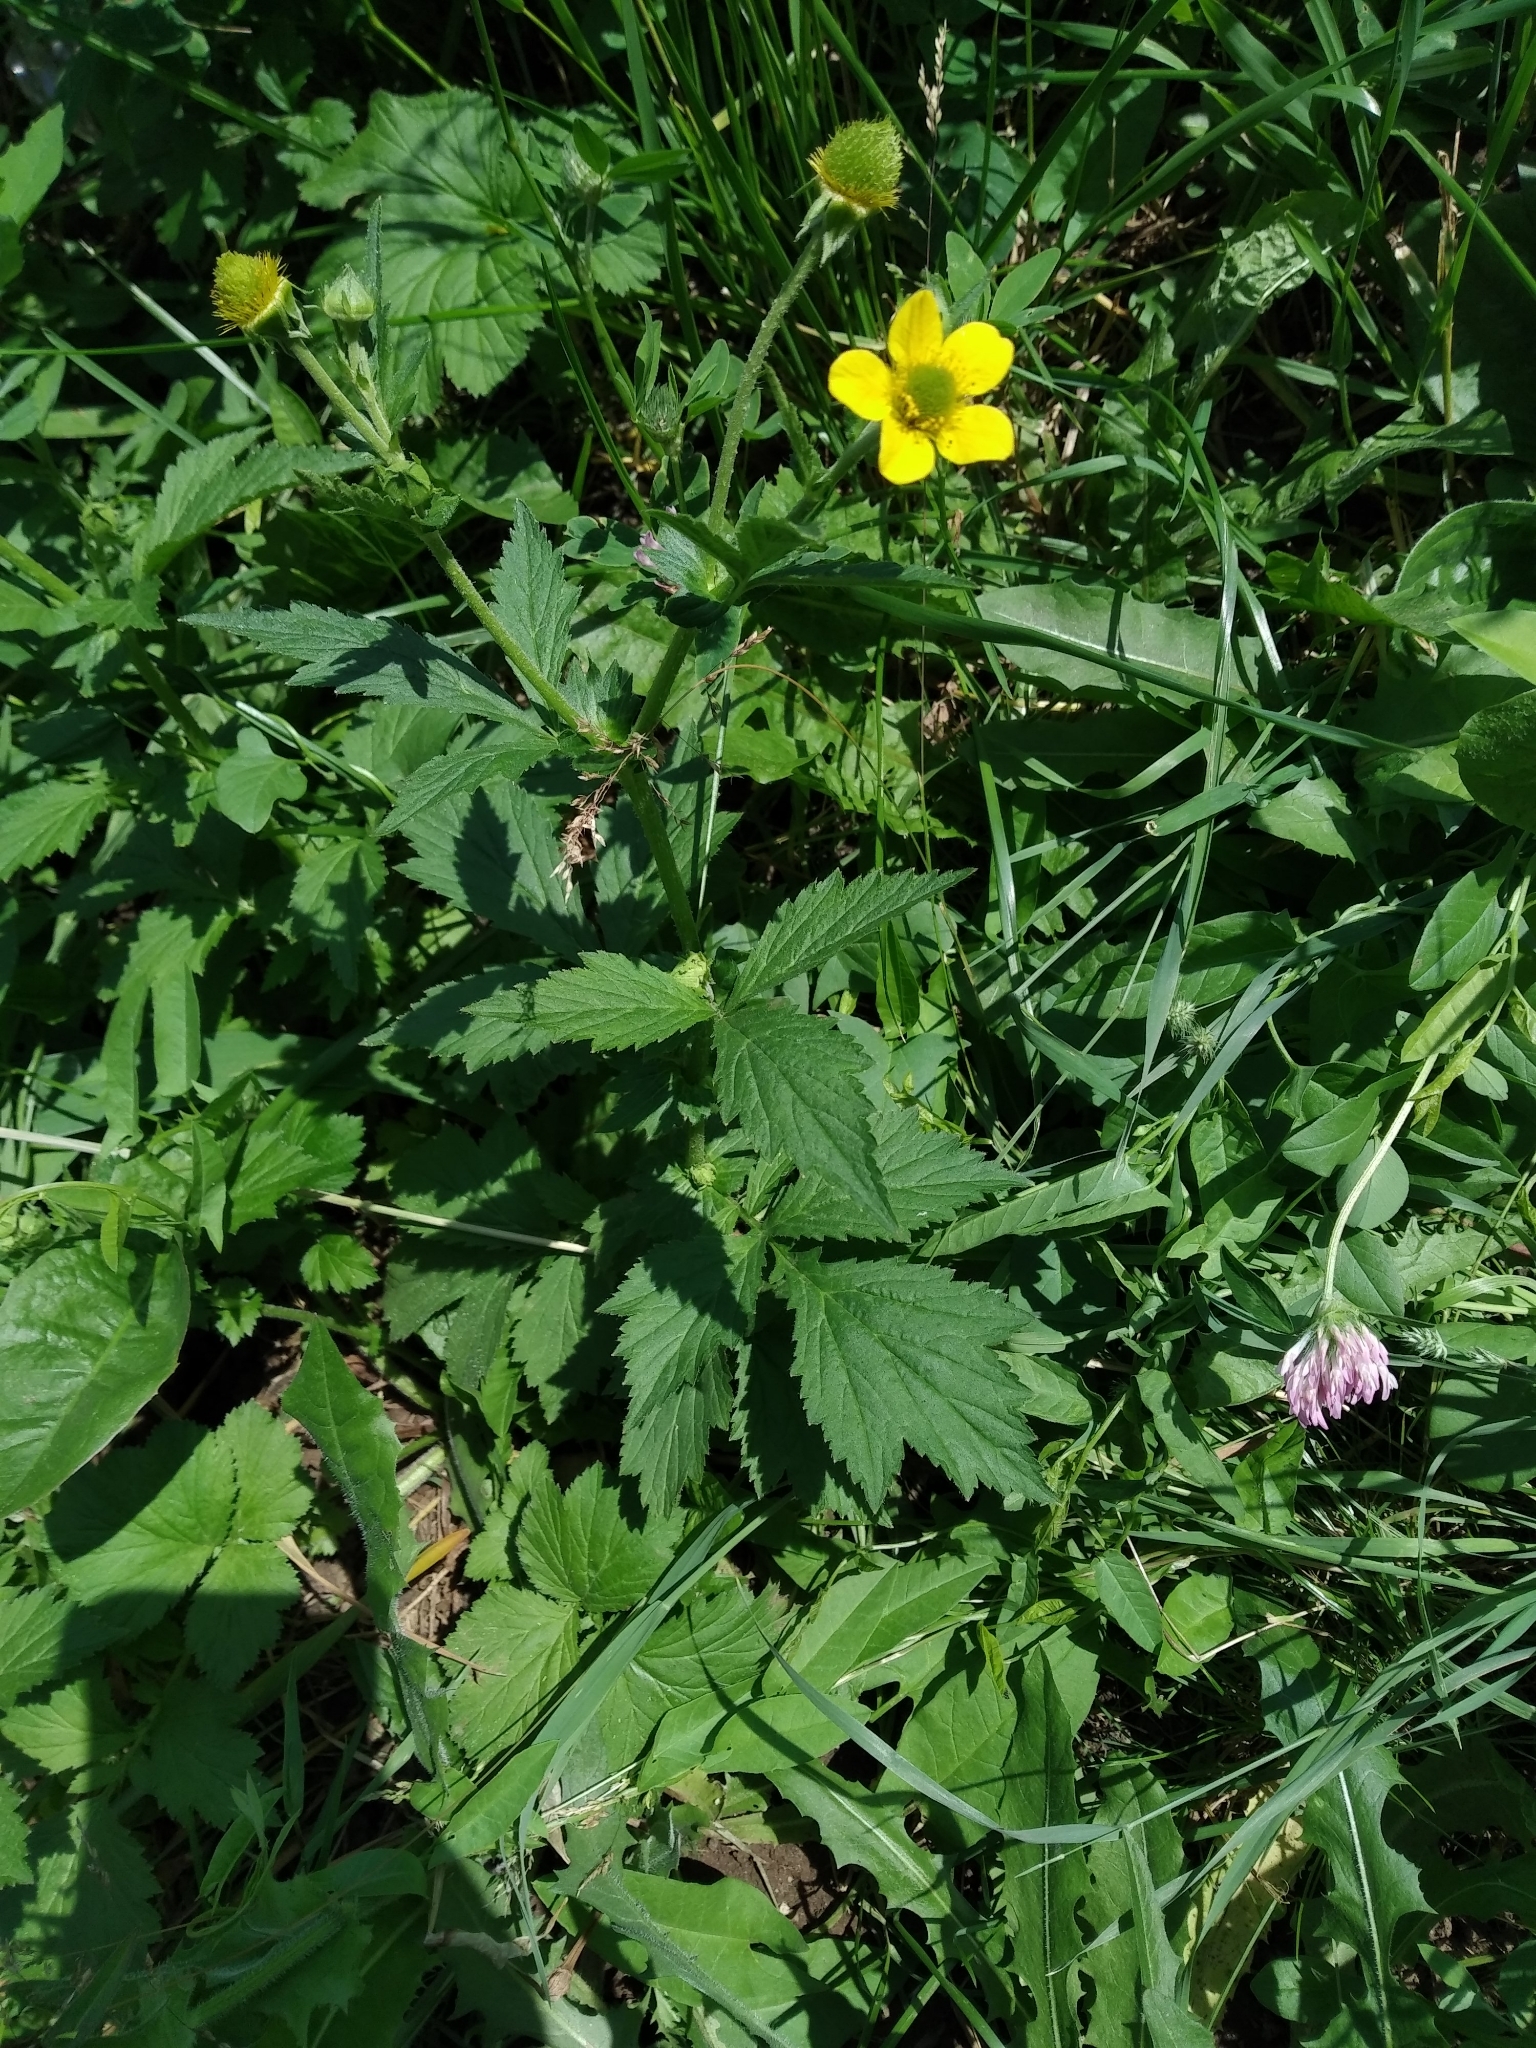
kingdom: Plantae
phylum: Tracheophyta
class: Magnoliopsida
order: Rosales
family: Rosaceae
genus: Geum
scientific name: Geum aleppicum
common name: Yellow avens
